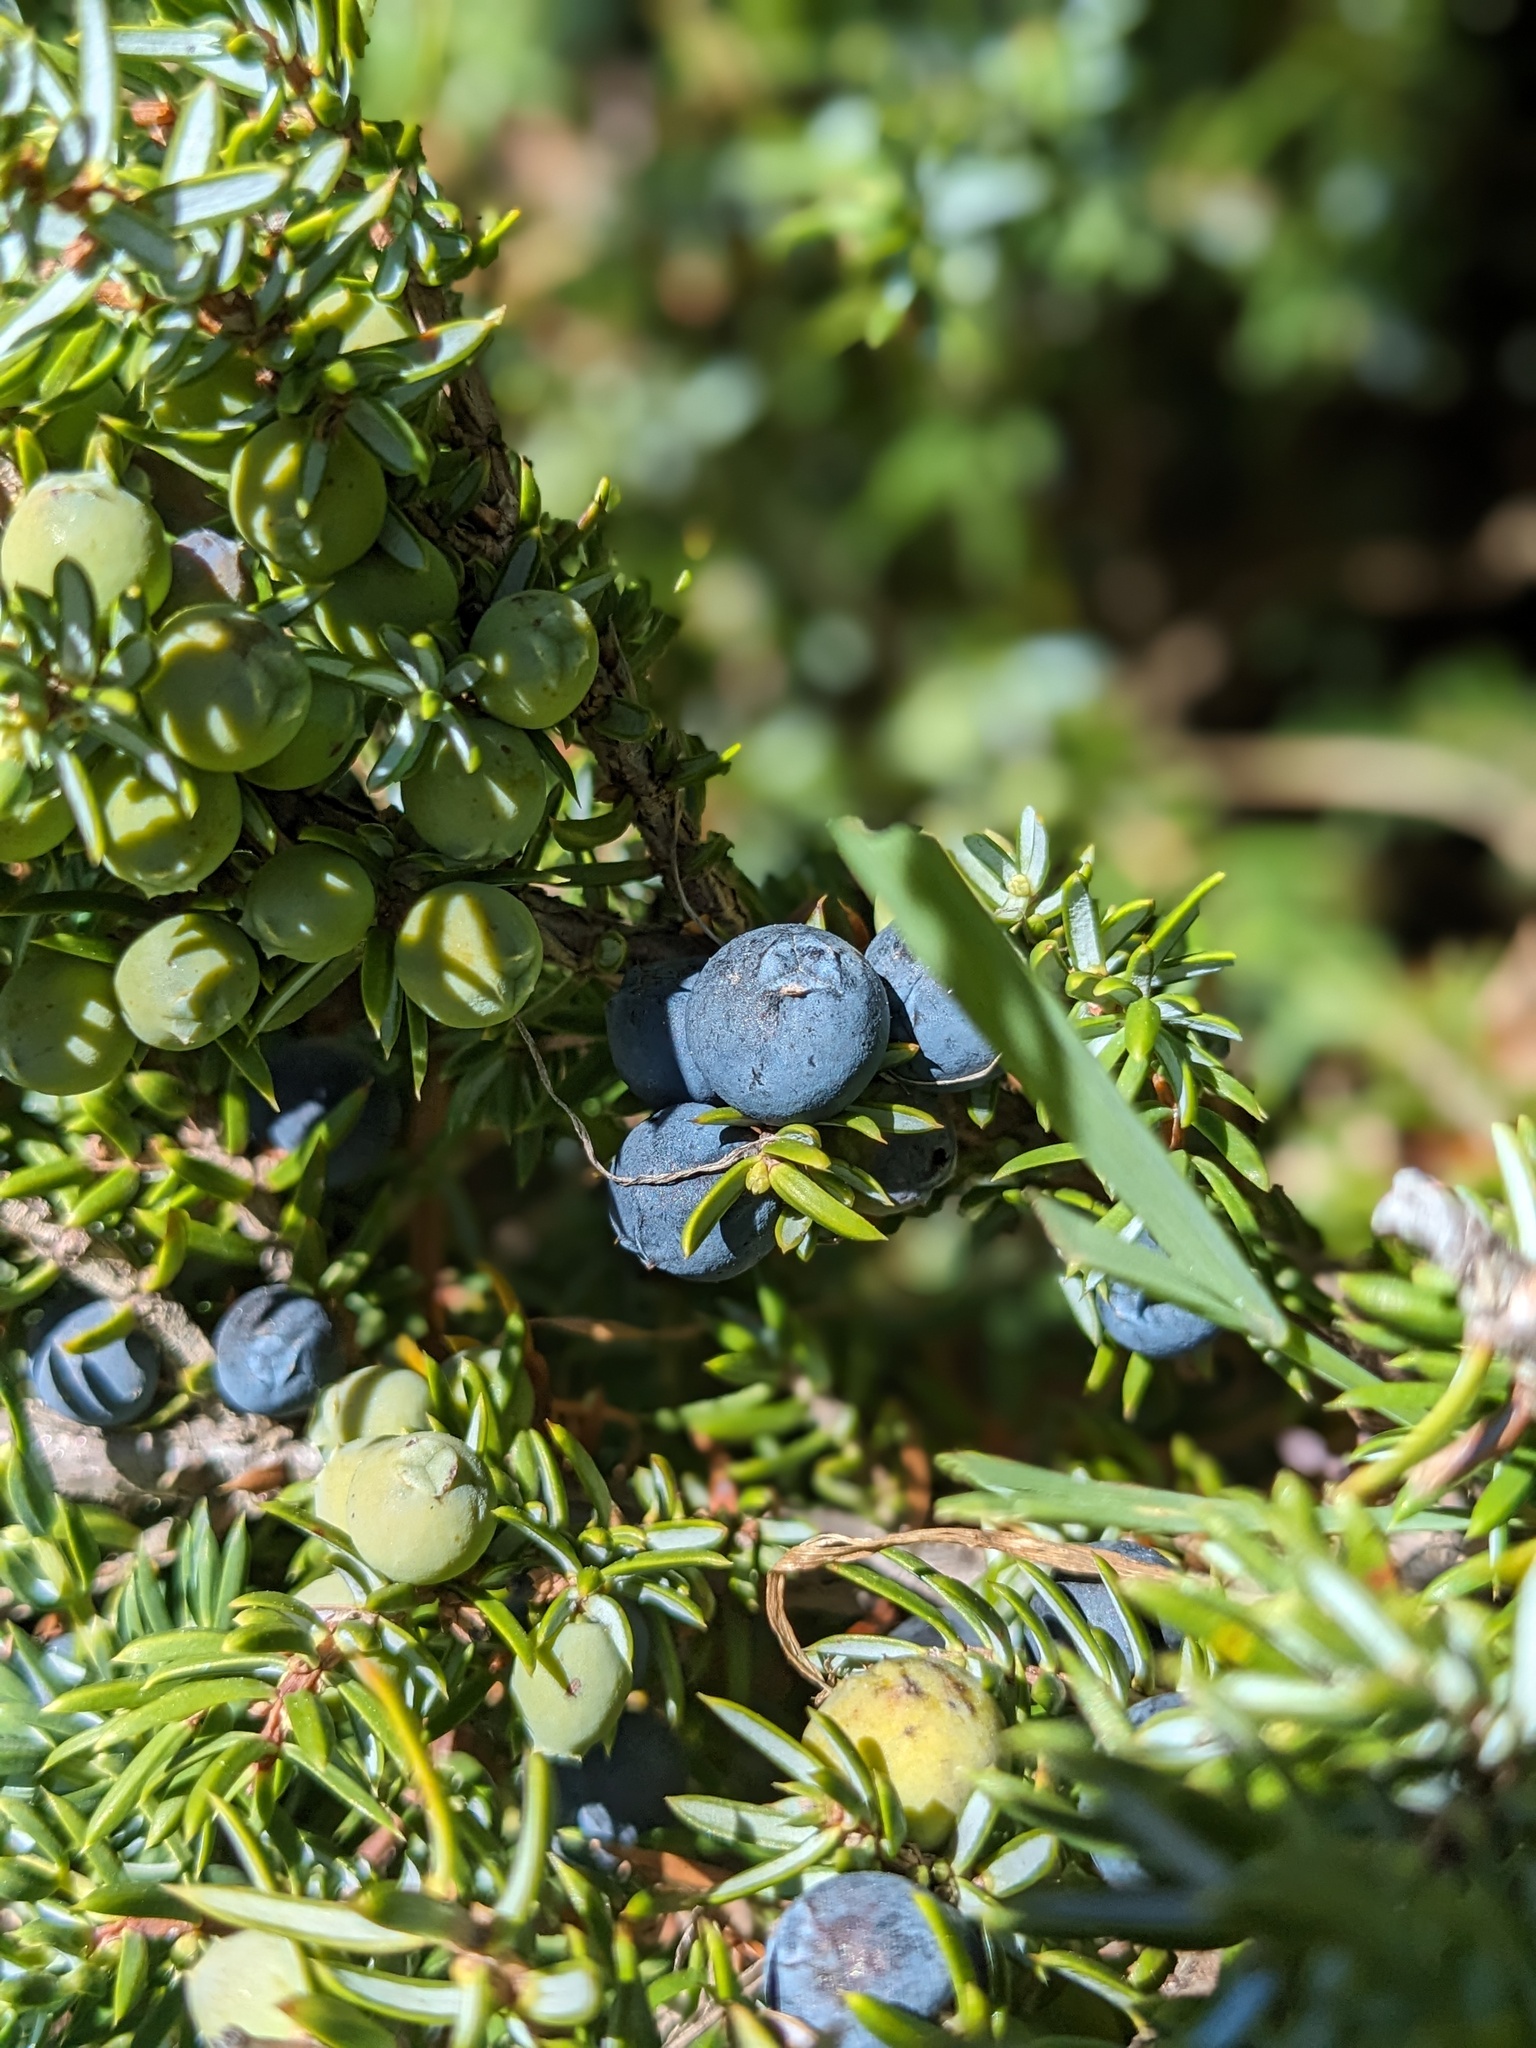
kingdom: Plantae
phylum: Tracheophyta
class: Pinopsida
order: Pinales
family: Cupressaceae
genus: Juniperus
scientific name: Juniperus communis
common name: Common juniper
